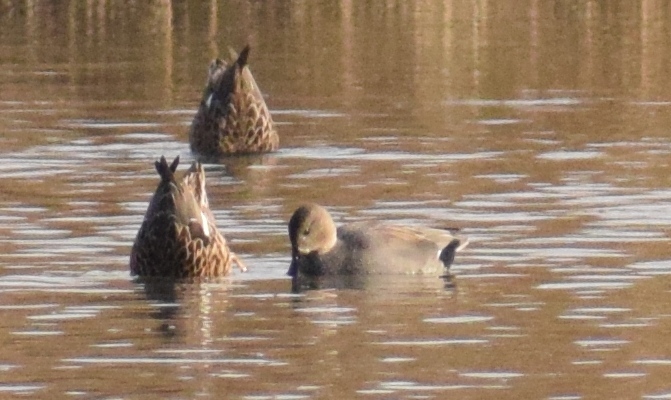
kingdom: Animalia
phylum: Chordata
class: Aves
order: Anseriformes
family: Anatidae
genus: Mareca
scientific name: Mareca strepera
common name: Gadwall
